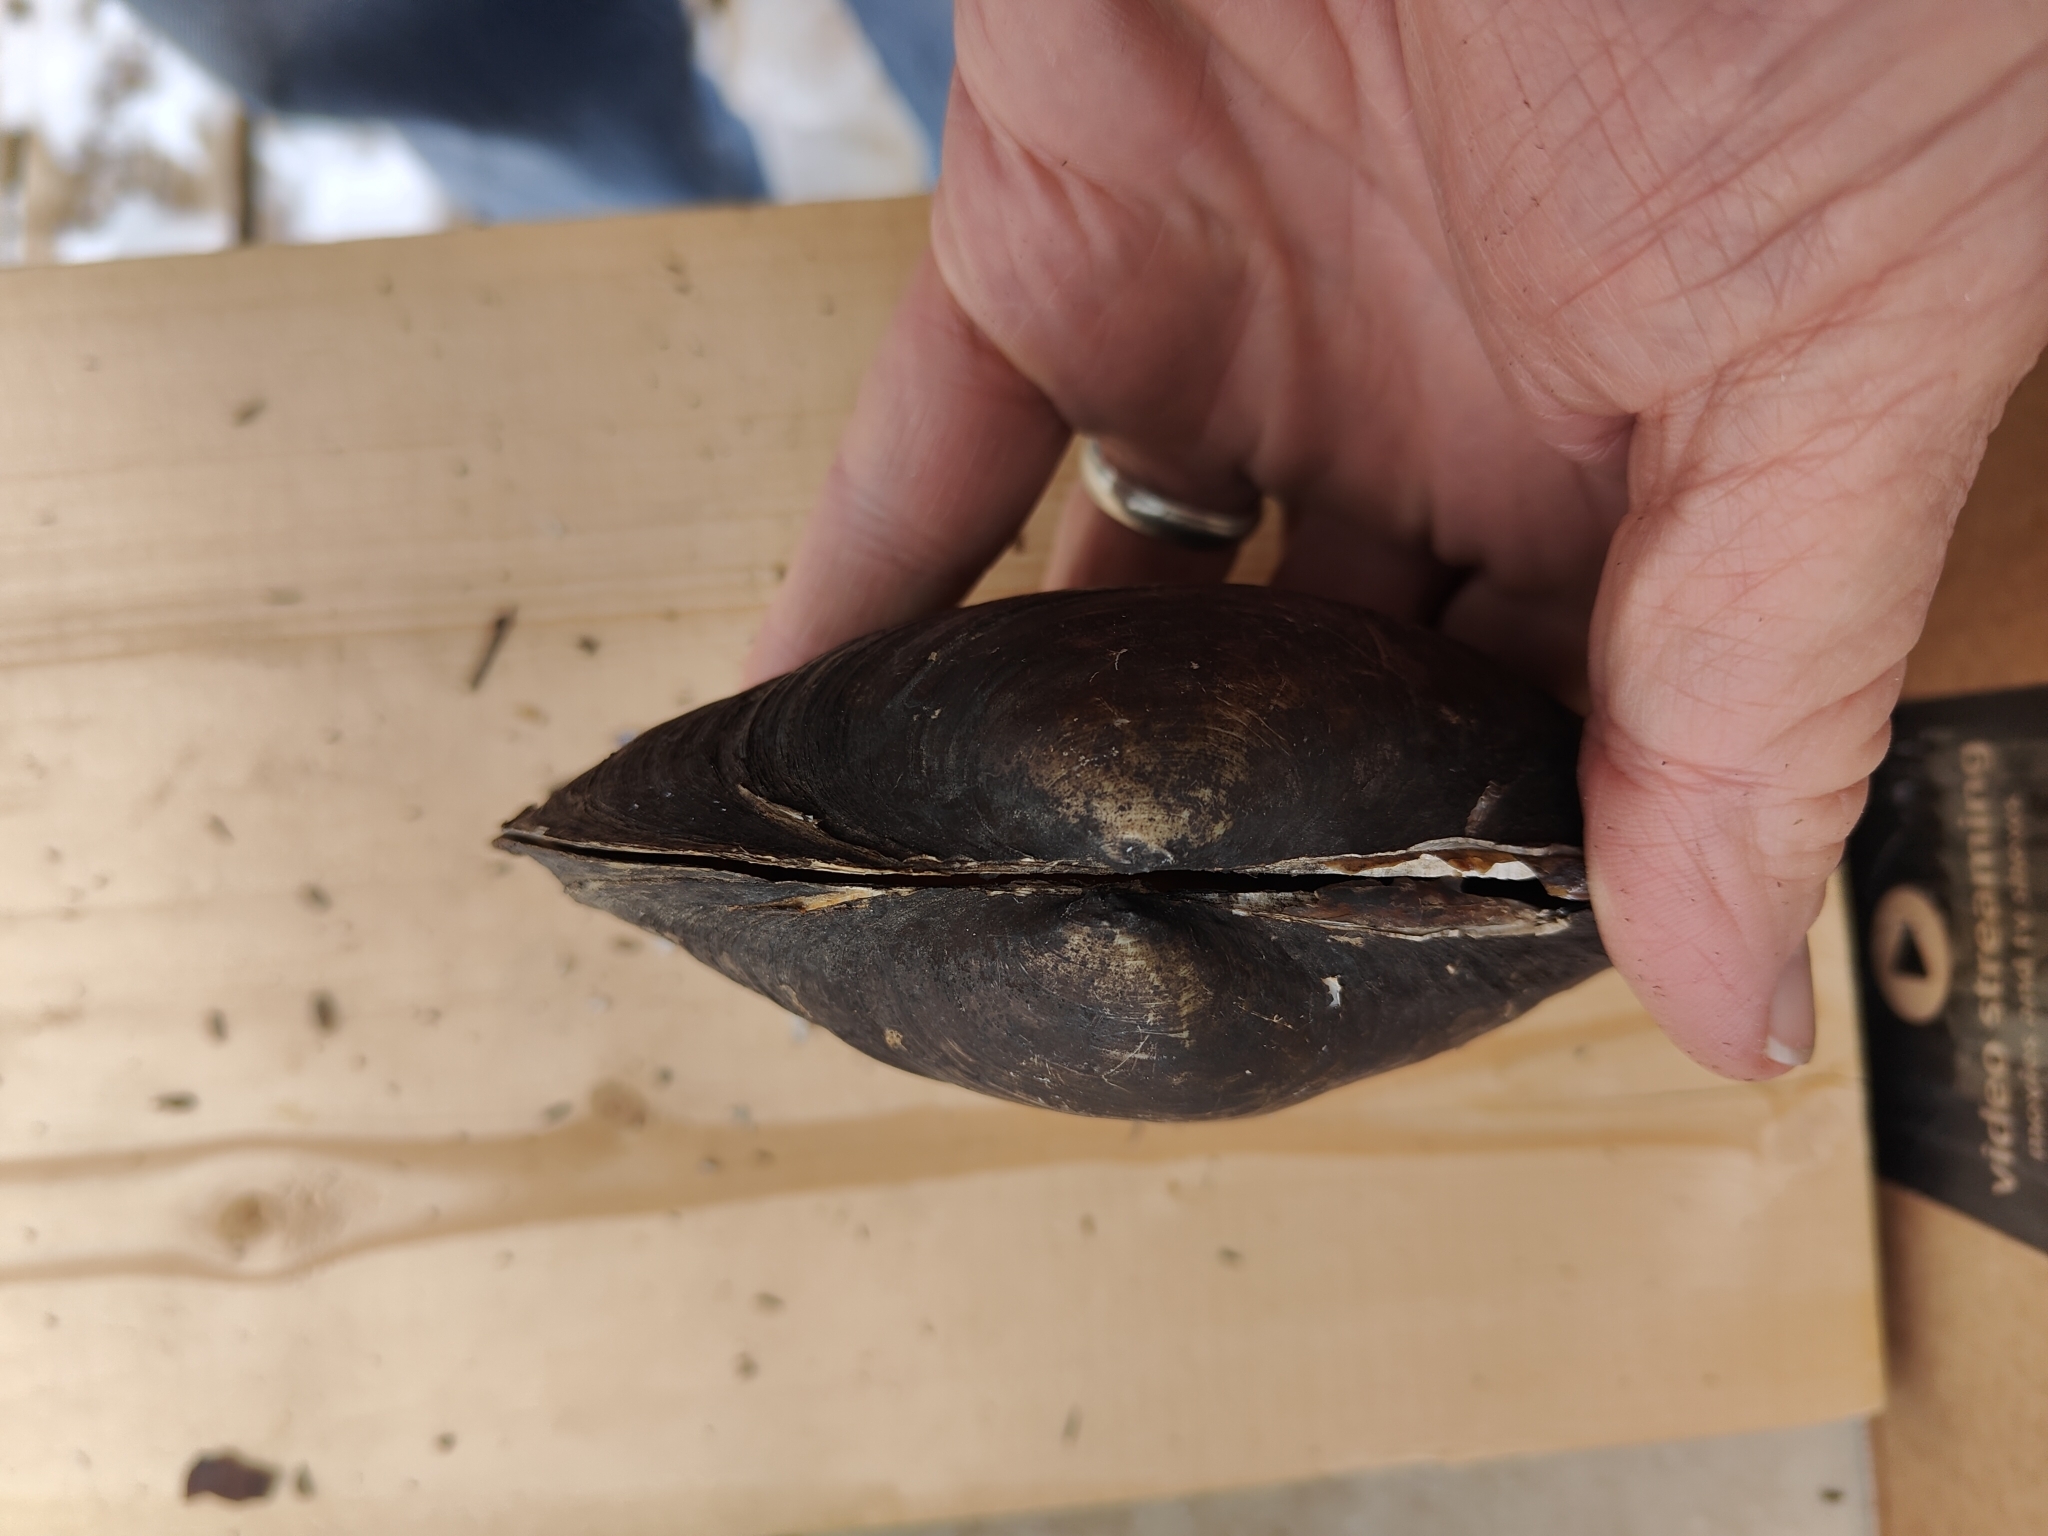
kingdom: Animalia
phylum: Mollusca
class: Bivalvia
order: Unionida
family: Unionidae
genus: Pyganodon
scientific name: Pyganodon grandis
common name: Giant floater
